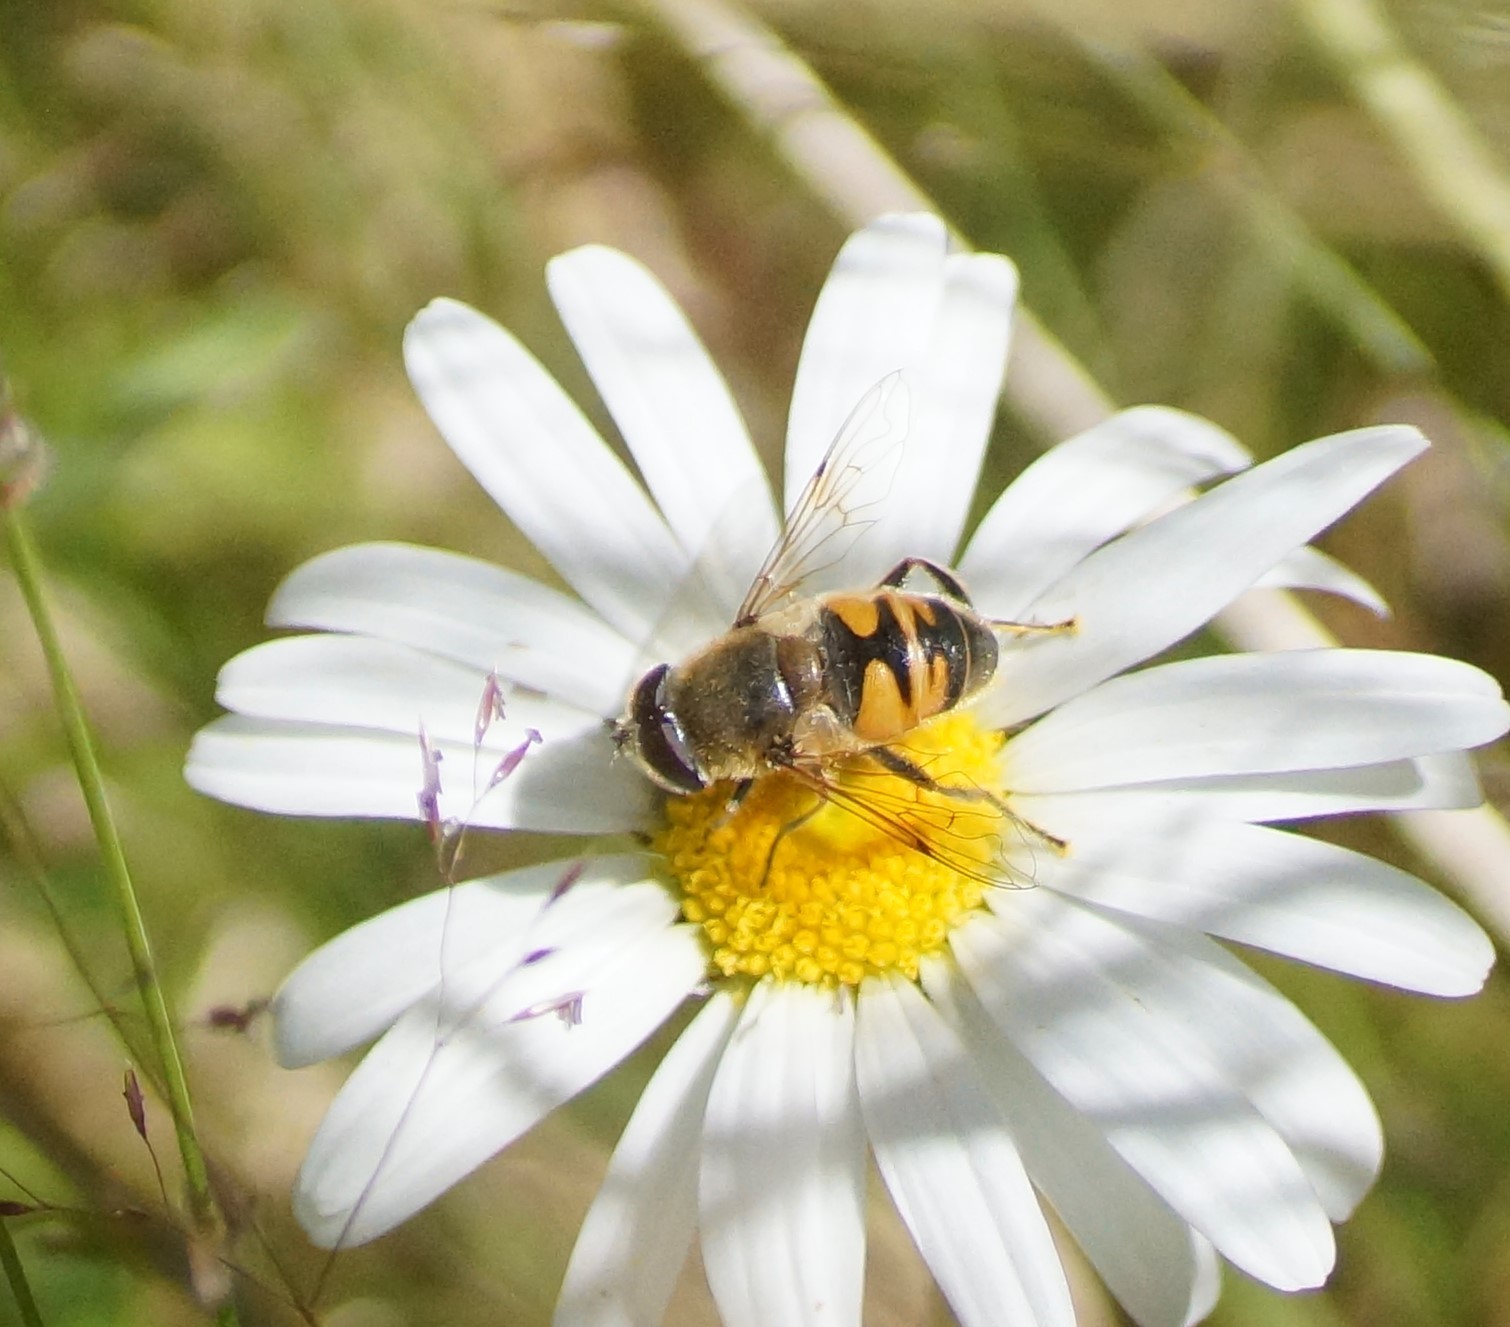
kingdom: Animalia
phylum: Arthropoda
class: Insecta
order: Diptera
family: Syrphidae
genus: Eristalis
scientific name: Eristalis tenax
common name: Drone fly
